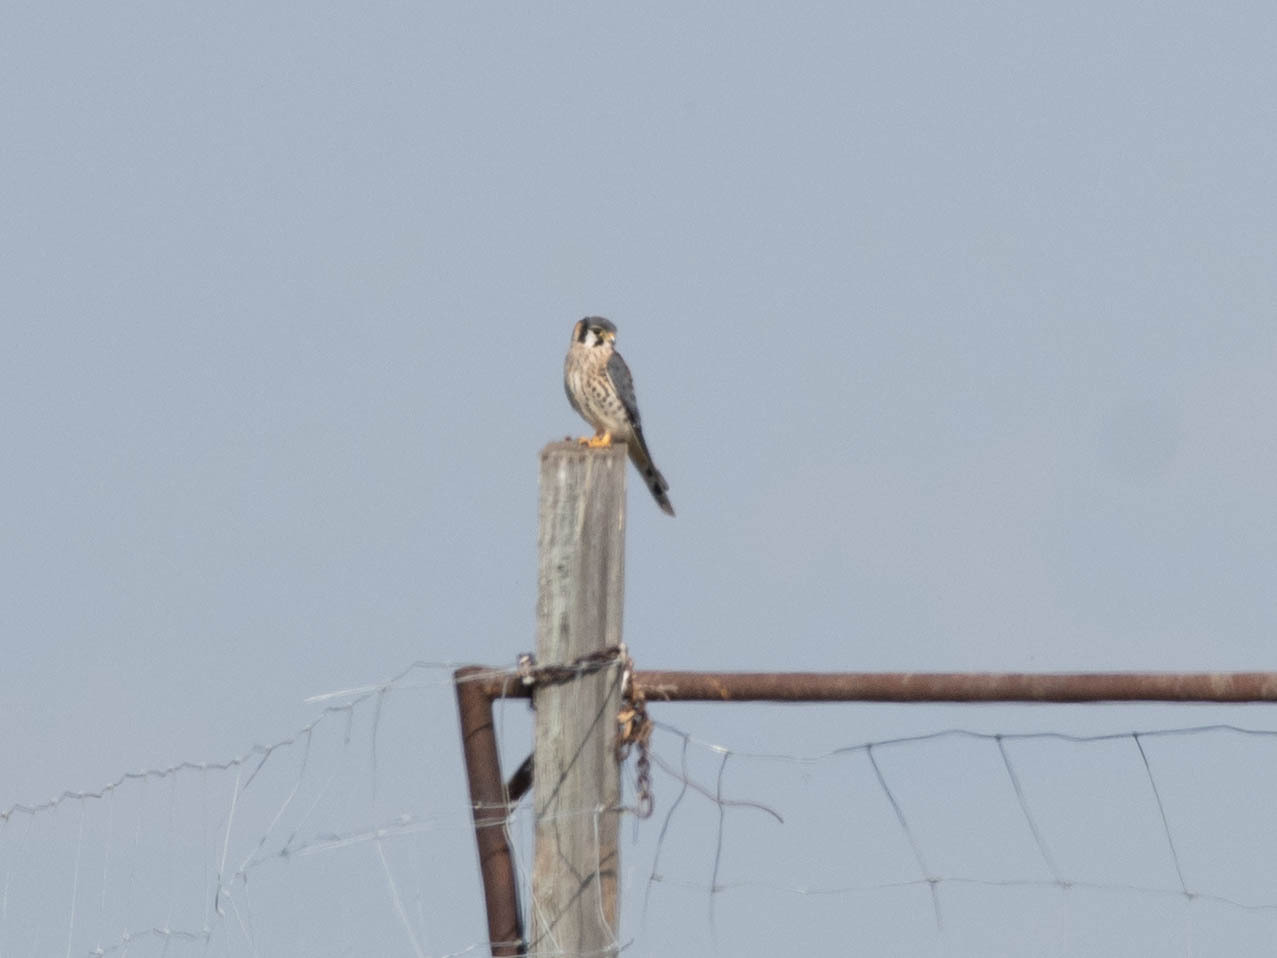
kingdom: Animalia
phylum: Chordata
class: Aves
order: Falconiformes
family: Falconidae
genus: Falco
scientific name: Falco sparverius
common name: American kestrel
